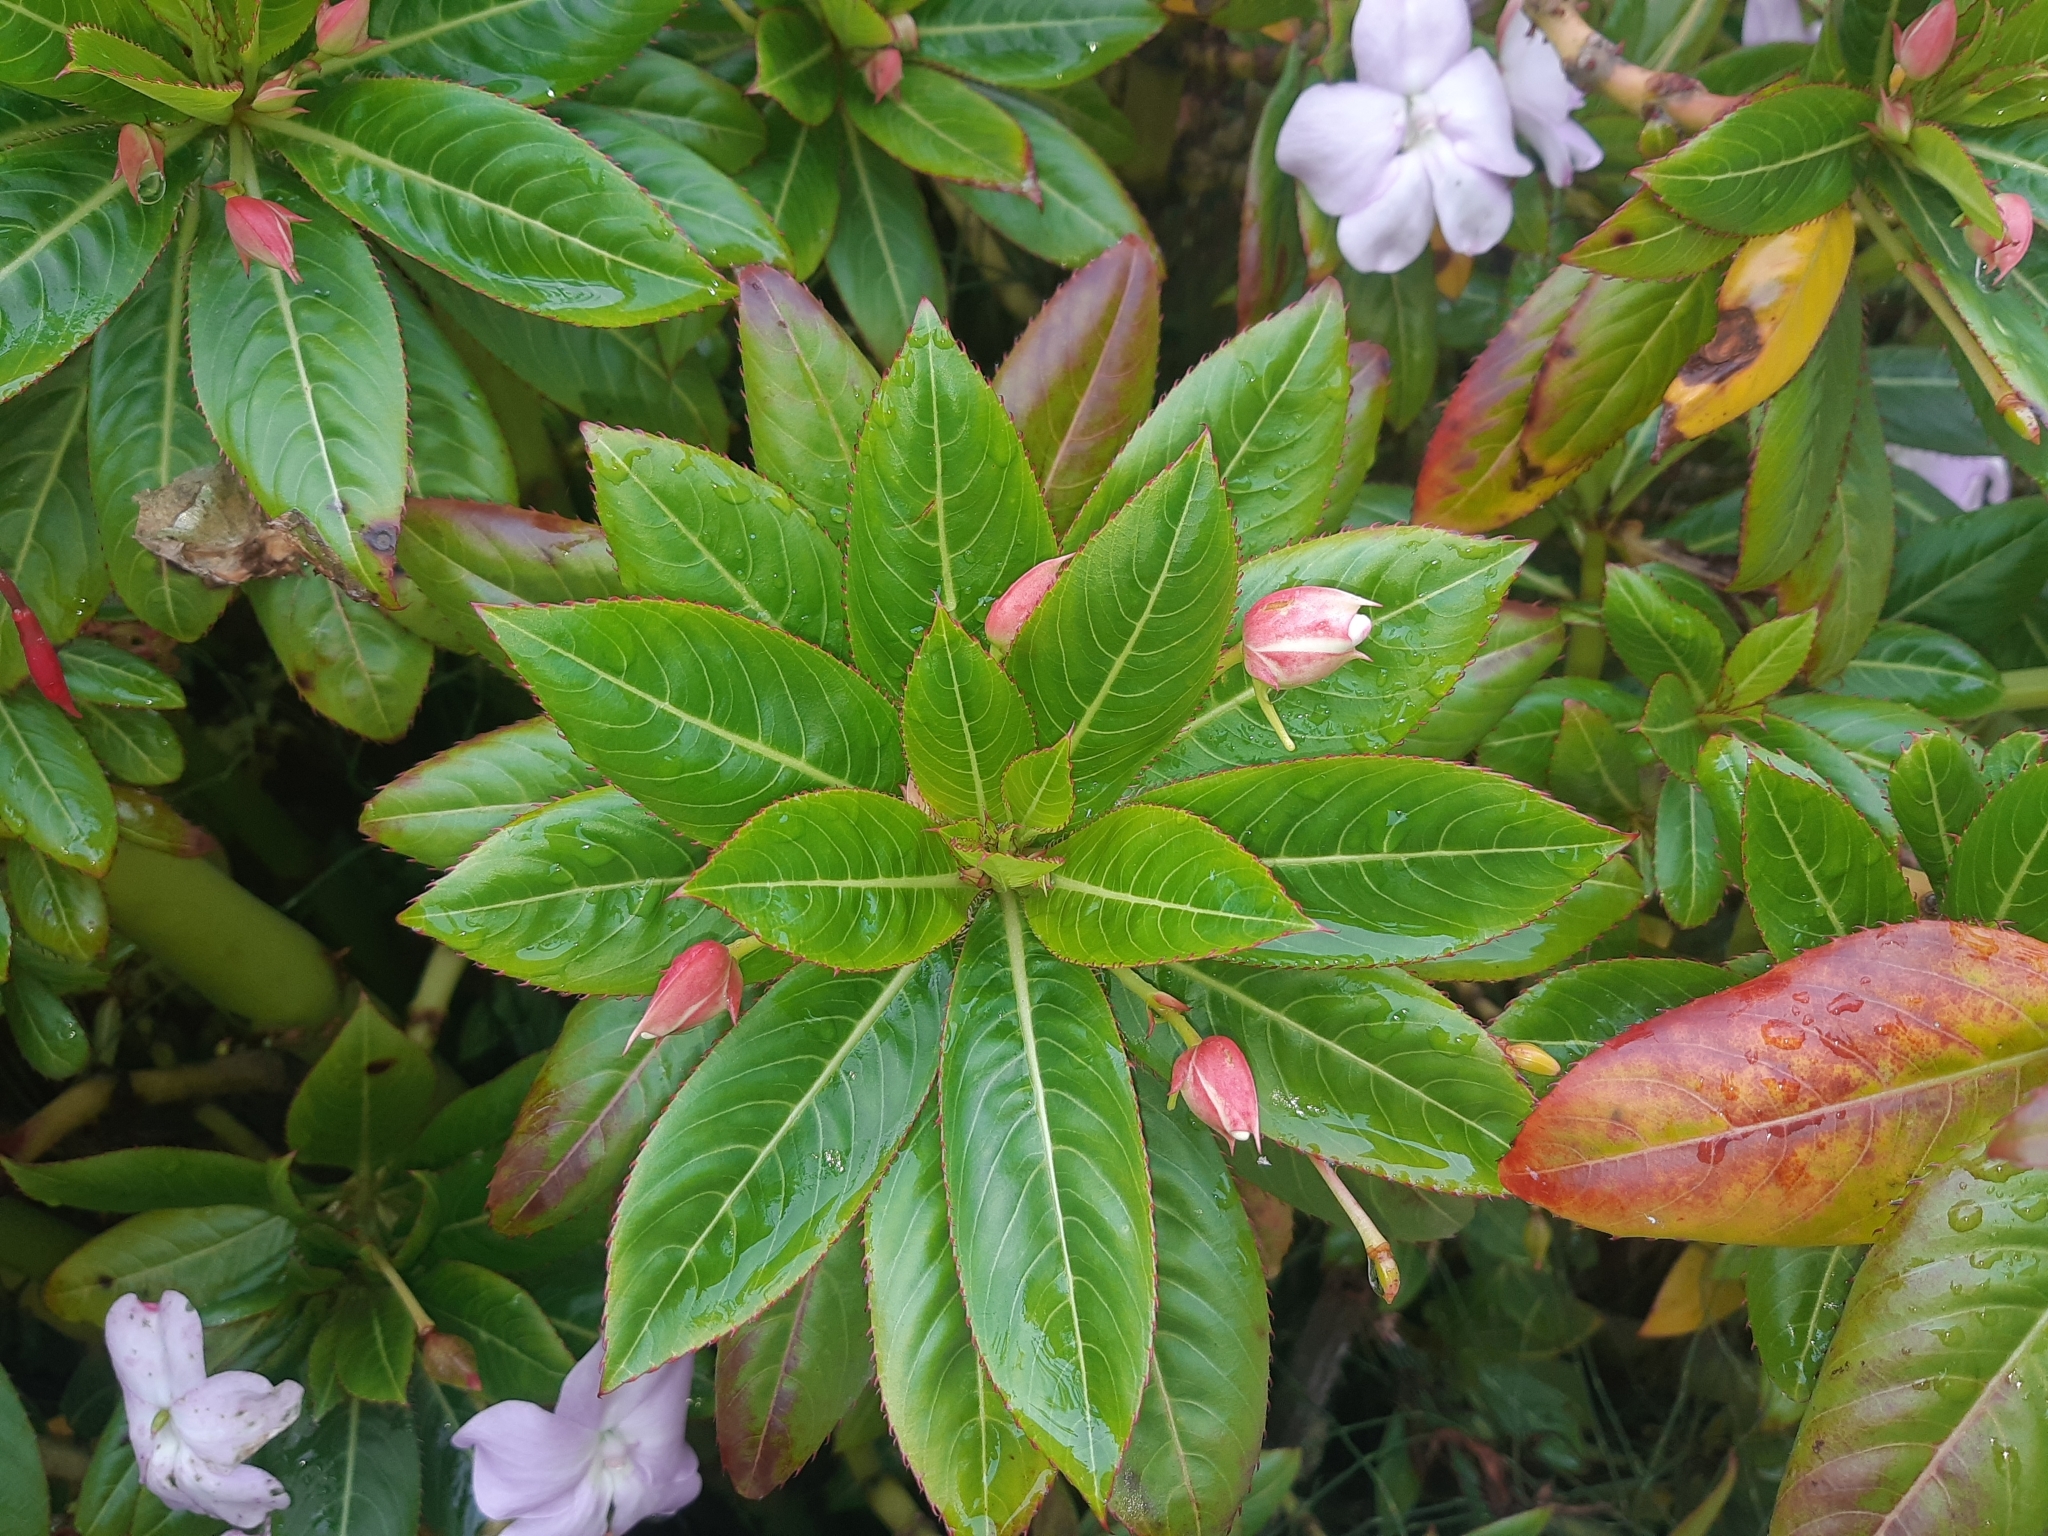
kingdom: Plantae
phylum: Tracheophyta
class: Magnoliopsida
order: Ericales
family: Balsaminaceae
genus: Impatiens
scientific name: Impatiens sodenii
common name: Oliver's touch-me-not
